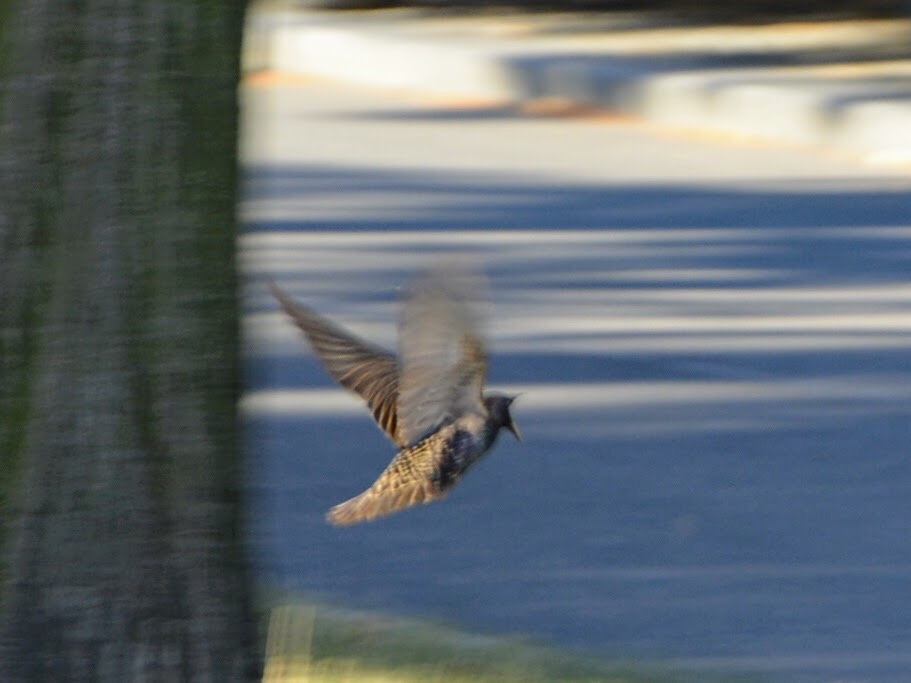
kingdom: Animalia
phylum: Chordata
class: Aves
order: Passeriformes
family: Sturnidae
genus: Sturnus
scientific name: Sturnus vulgaris
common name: Common starling
